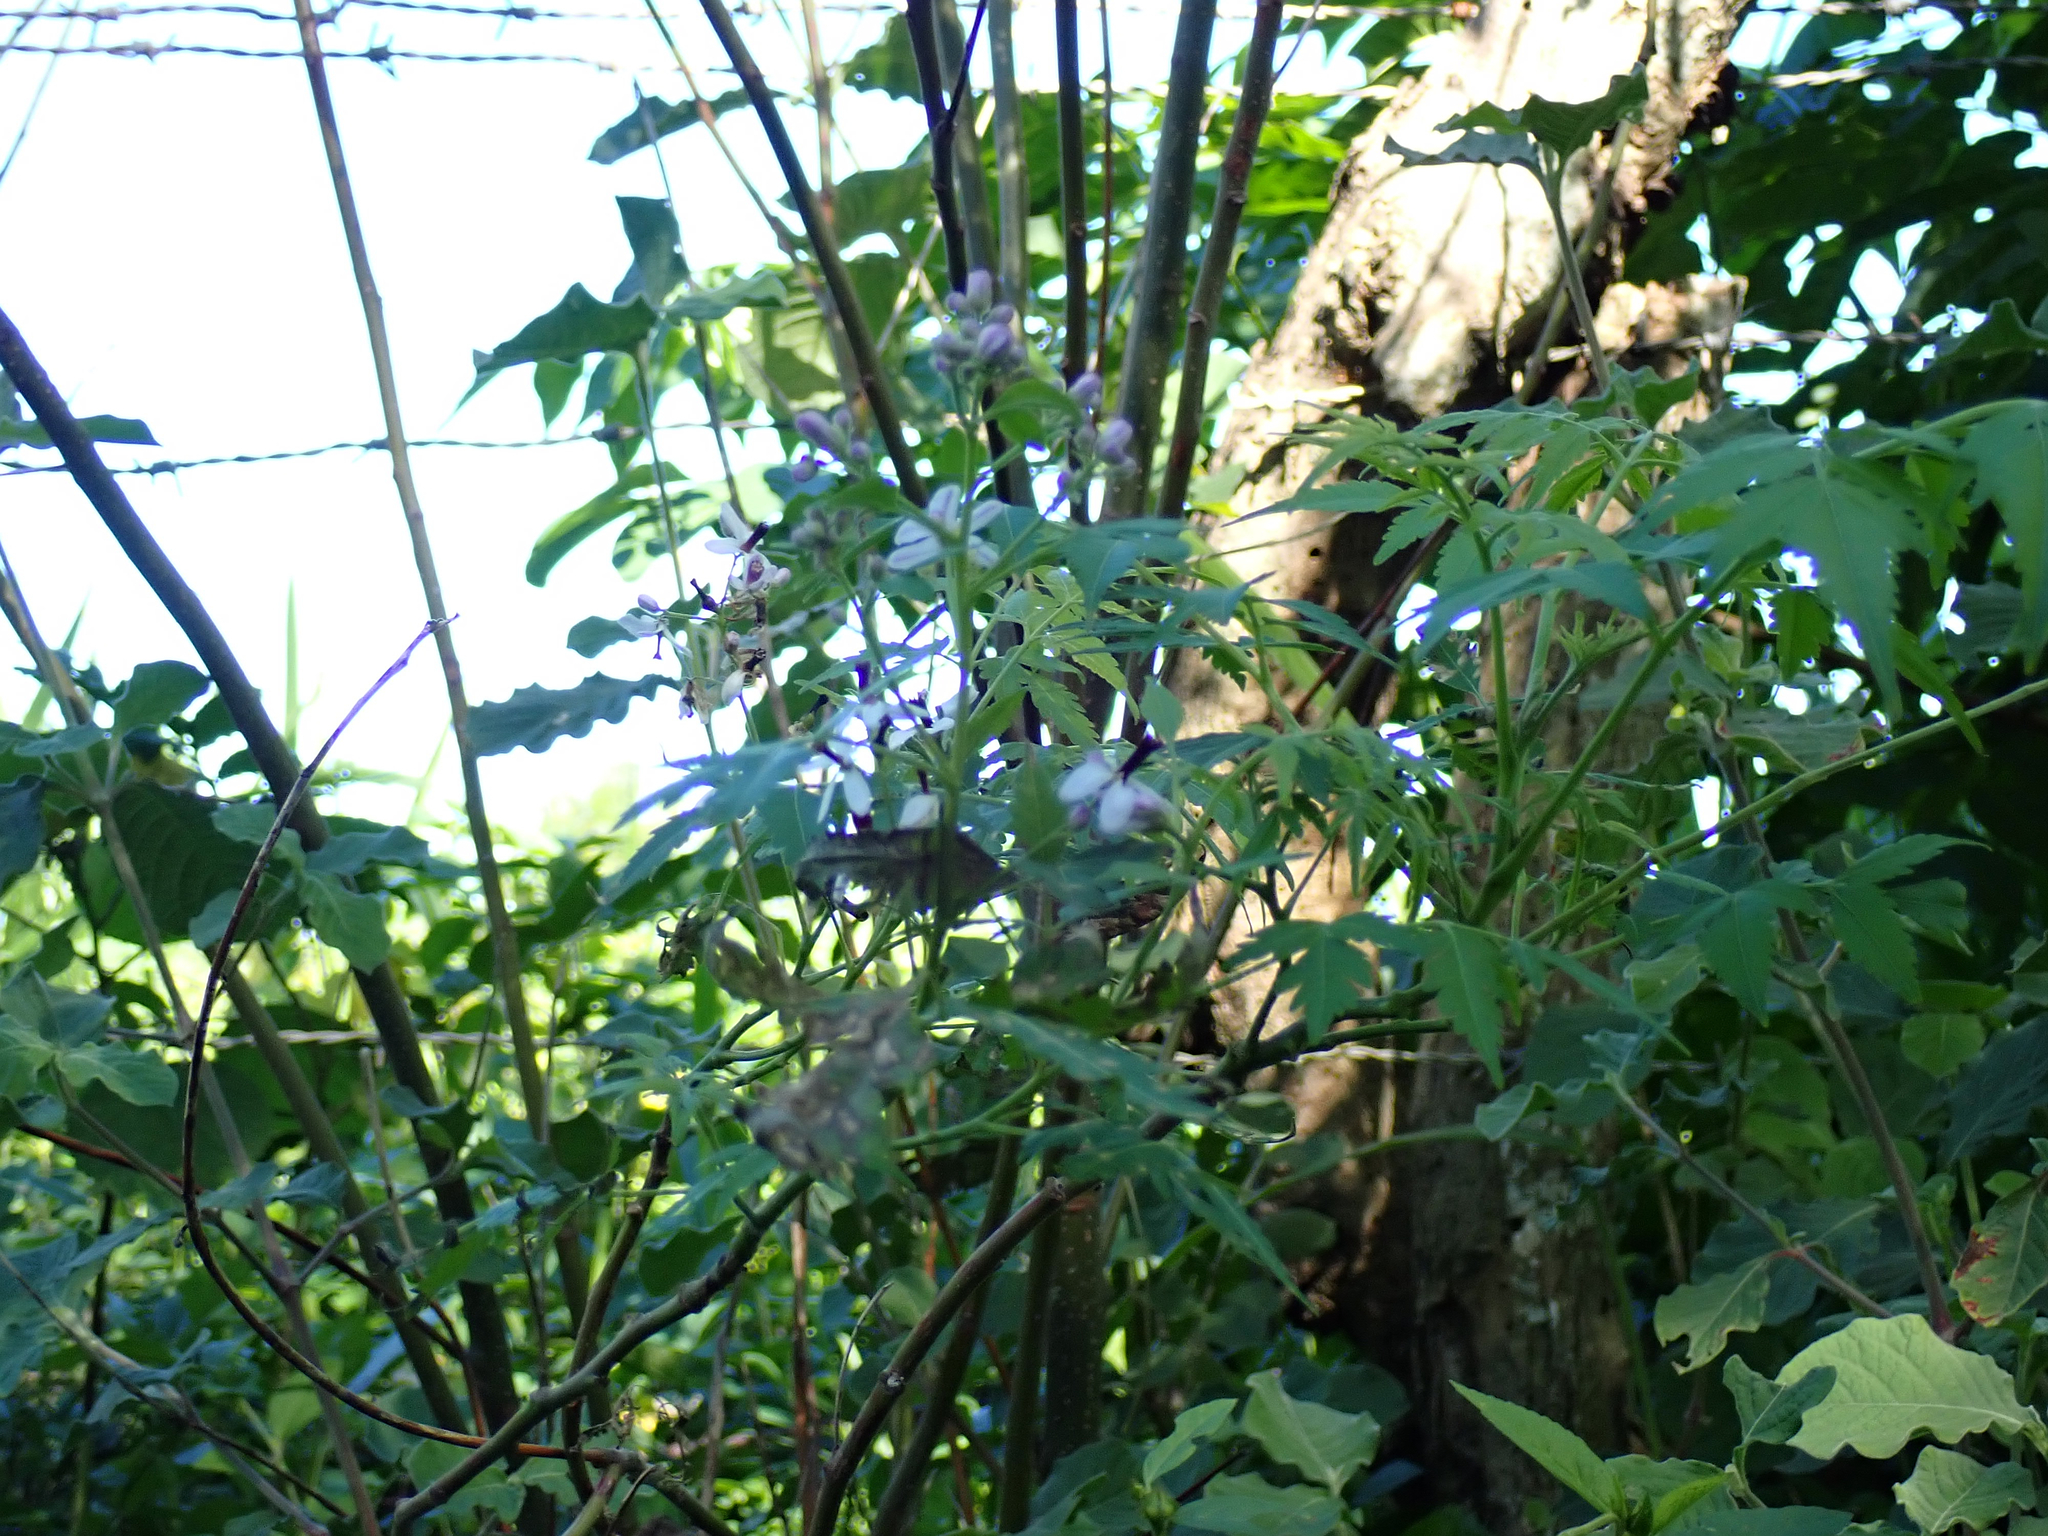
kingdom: Plantae
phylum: Tracheophyta
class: Magnoliopsida
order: Sapindales
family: Meliaceae
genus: Melia
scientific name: Melia azedarach
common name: Chinaberrytree
